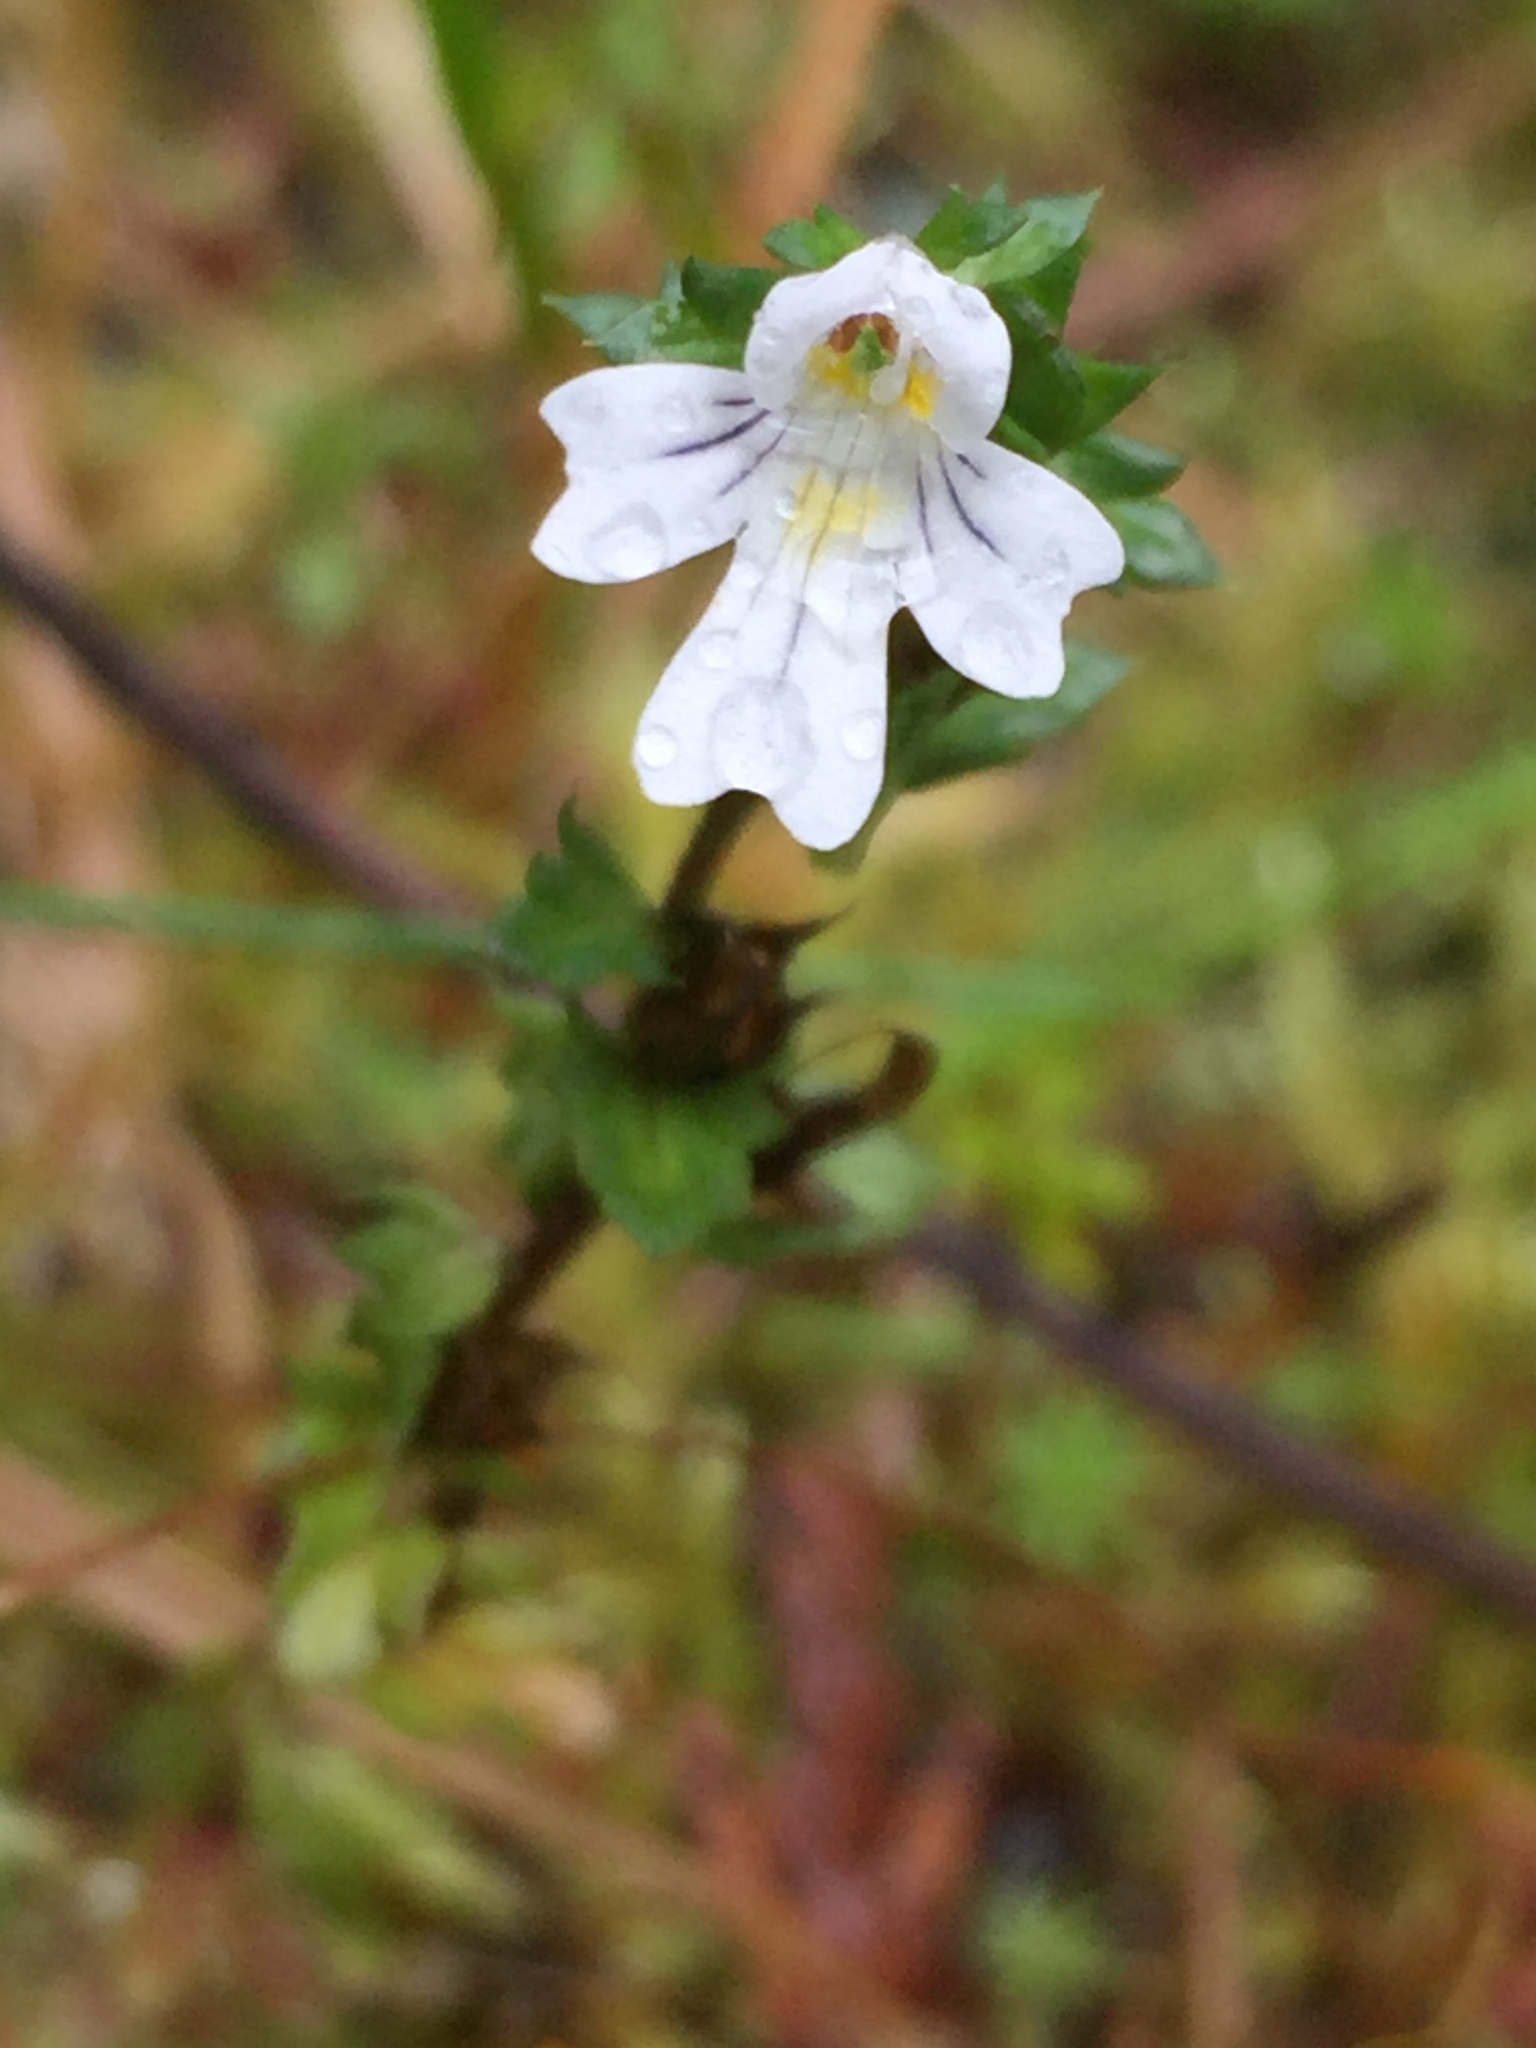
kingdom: Plantae
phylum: Tracheophyta
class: Magnoliopsida
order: Lamiales
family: Orobanchaceae
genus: Euphrasia
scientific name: Euphrasia nemorosa
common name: Common eyebright
